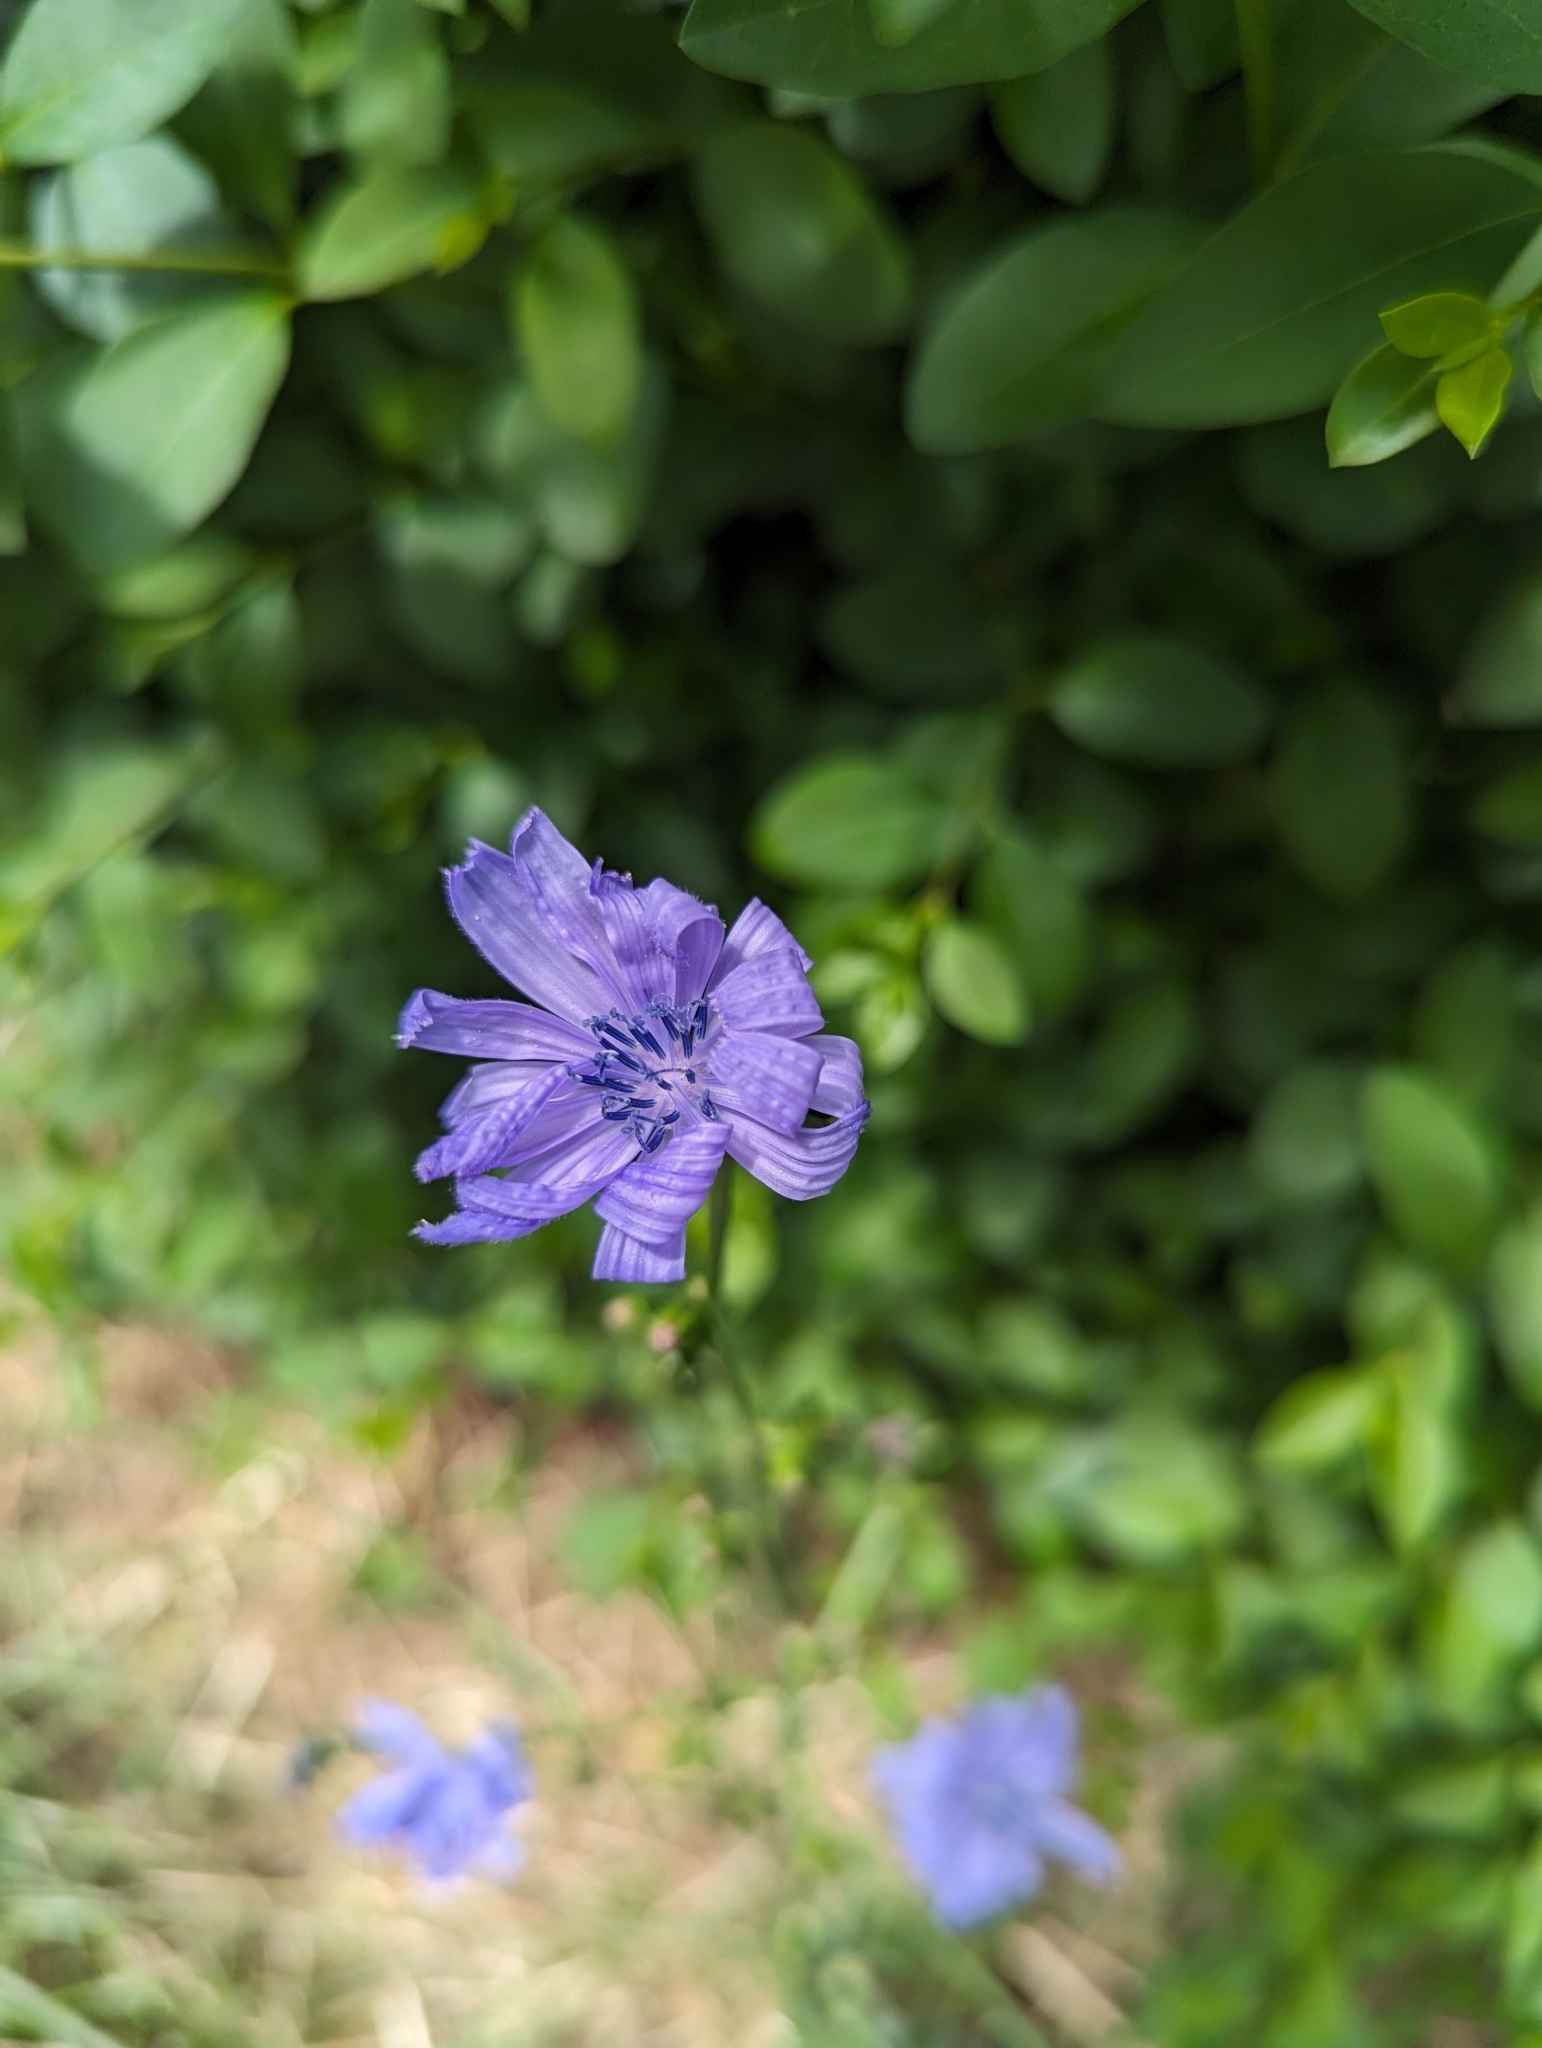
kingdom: Plantae
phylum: Tracheophyta
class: Magnoliopsida
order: Asterales
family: Asteraceae
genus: Cichorium
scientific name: Cichorium intybus
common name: Chicory
